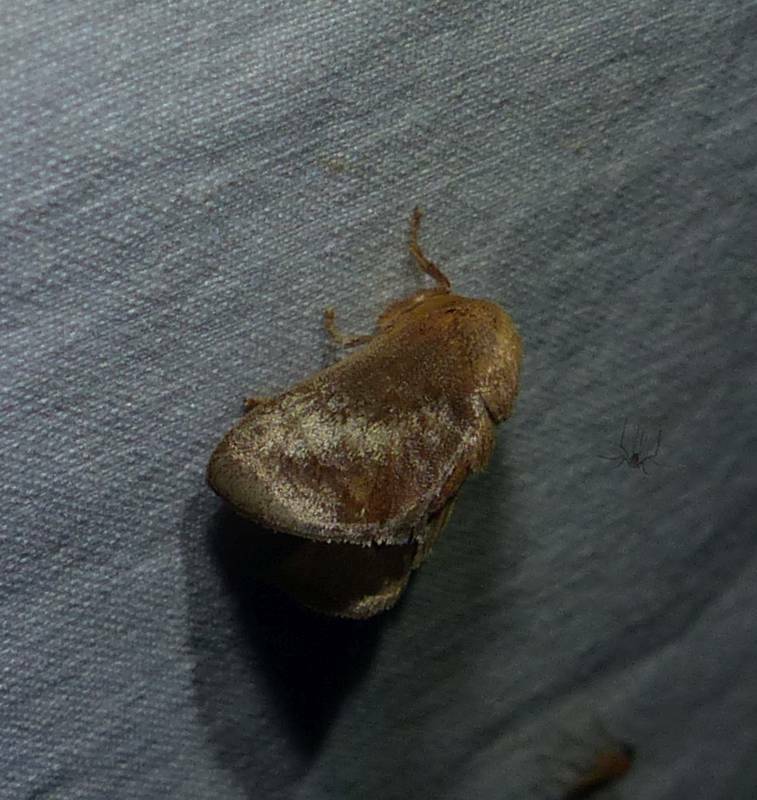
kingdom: Animalia
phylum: Arthropoda
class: Insecta
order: Lepidoptera
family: Limacodidae
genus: Isa
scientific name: Isa textula
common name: Crowned slug moth
